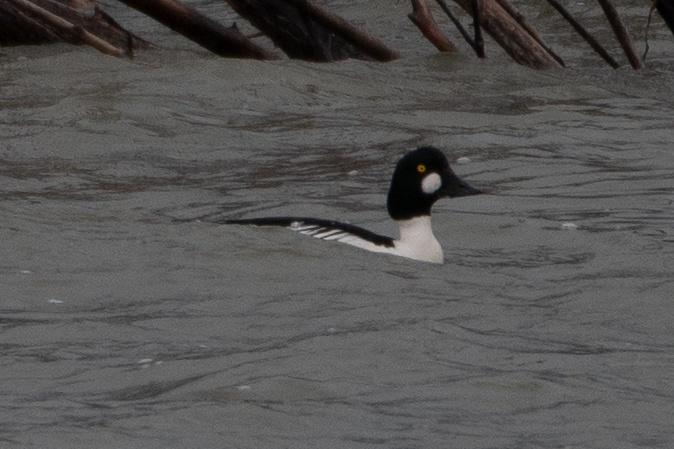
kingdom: Animalia
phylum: Chordata
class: Aves
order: Anseriformes
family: Anatidae
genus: Bucephala
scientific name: Bucephala clangula
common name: Common goldeneye
